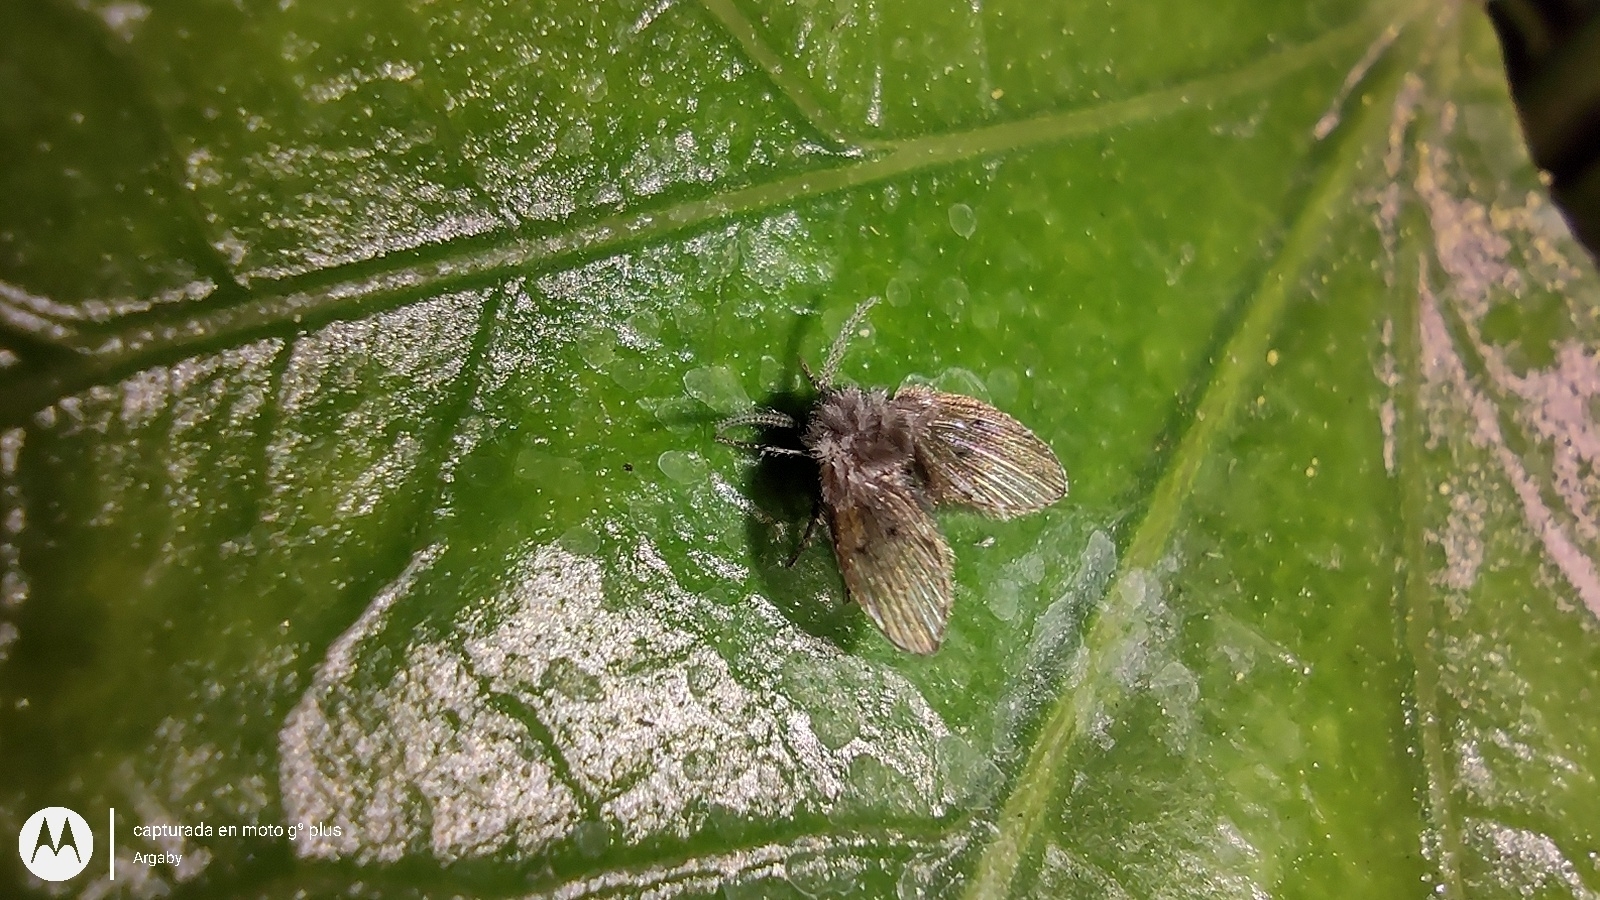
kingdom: Animalia
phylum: Arthropoda
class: Insecta
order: Diptera
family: Psychodidae
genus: Clogmia
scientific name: Clogmia albipunctatus
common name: White-spotted moth fly
